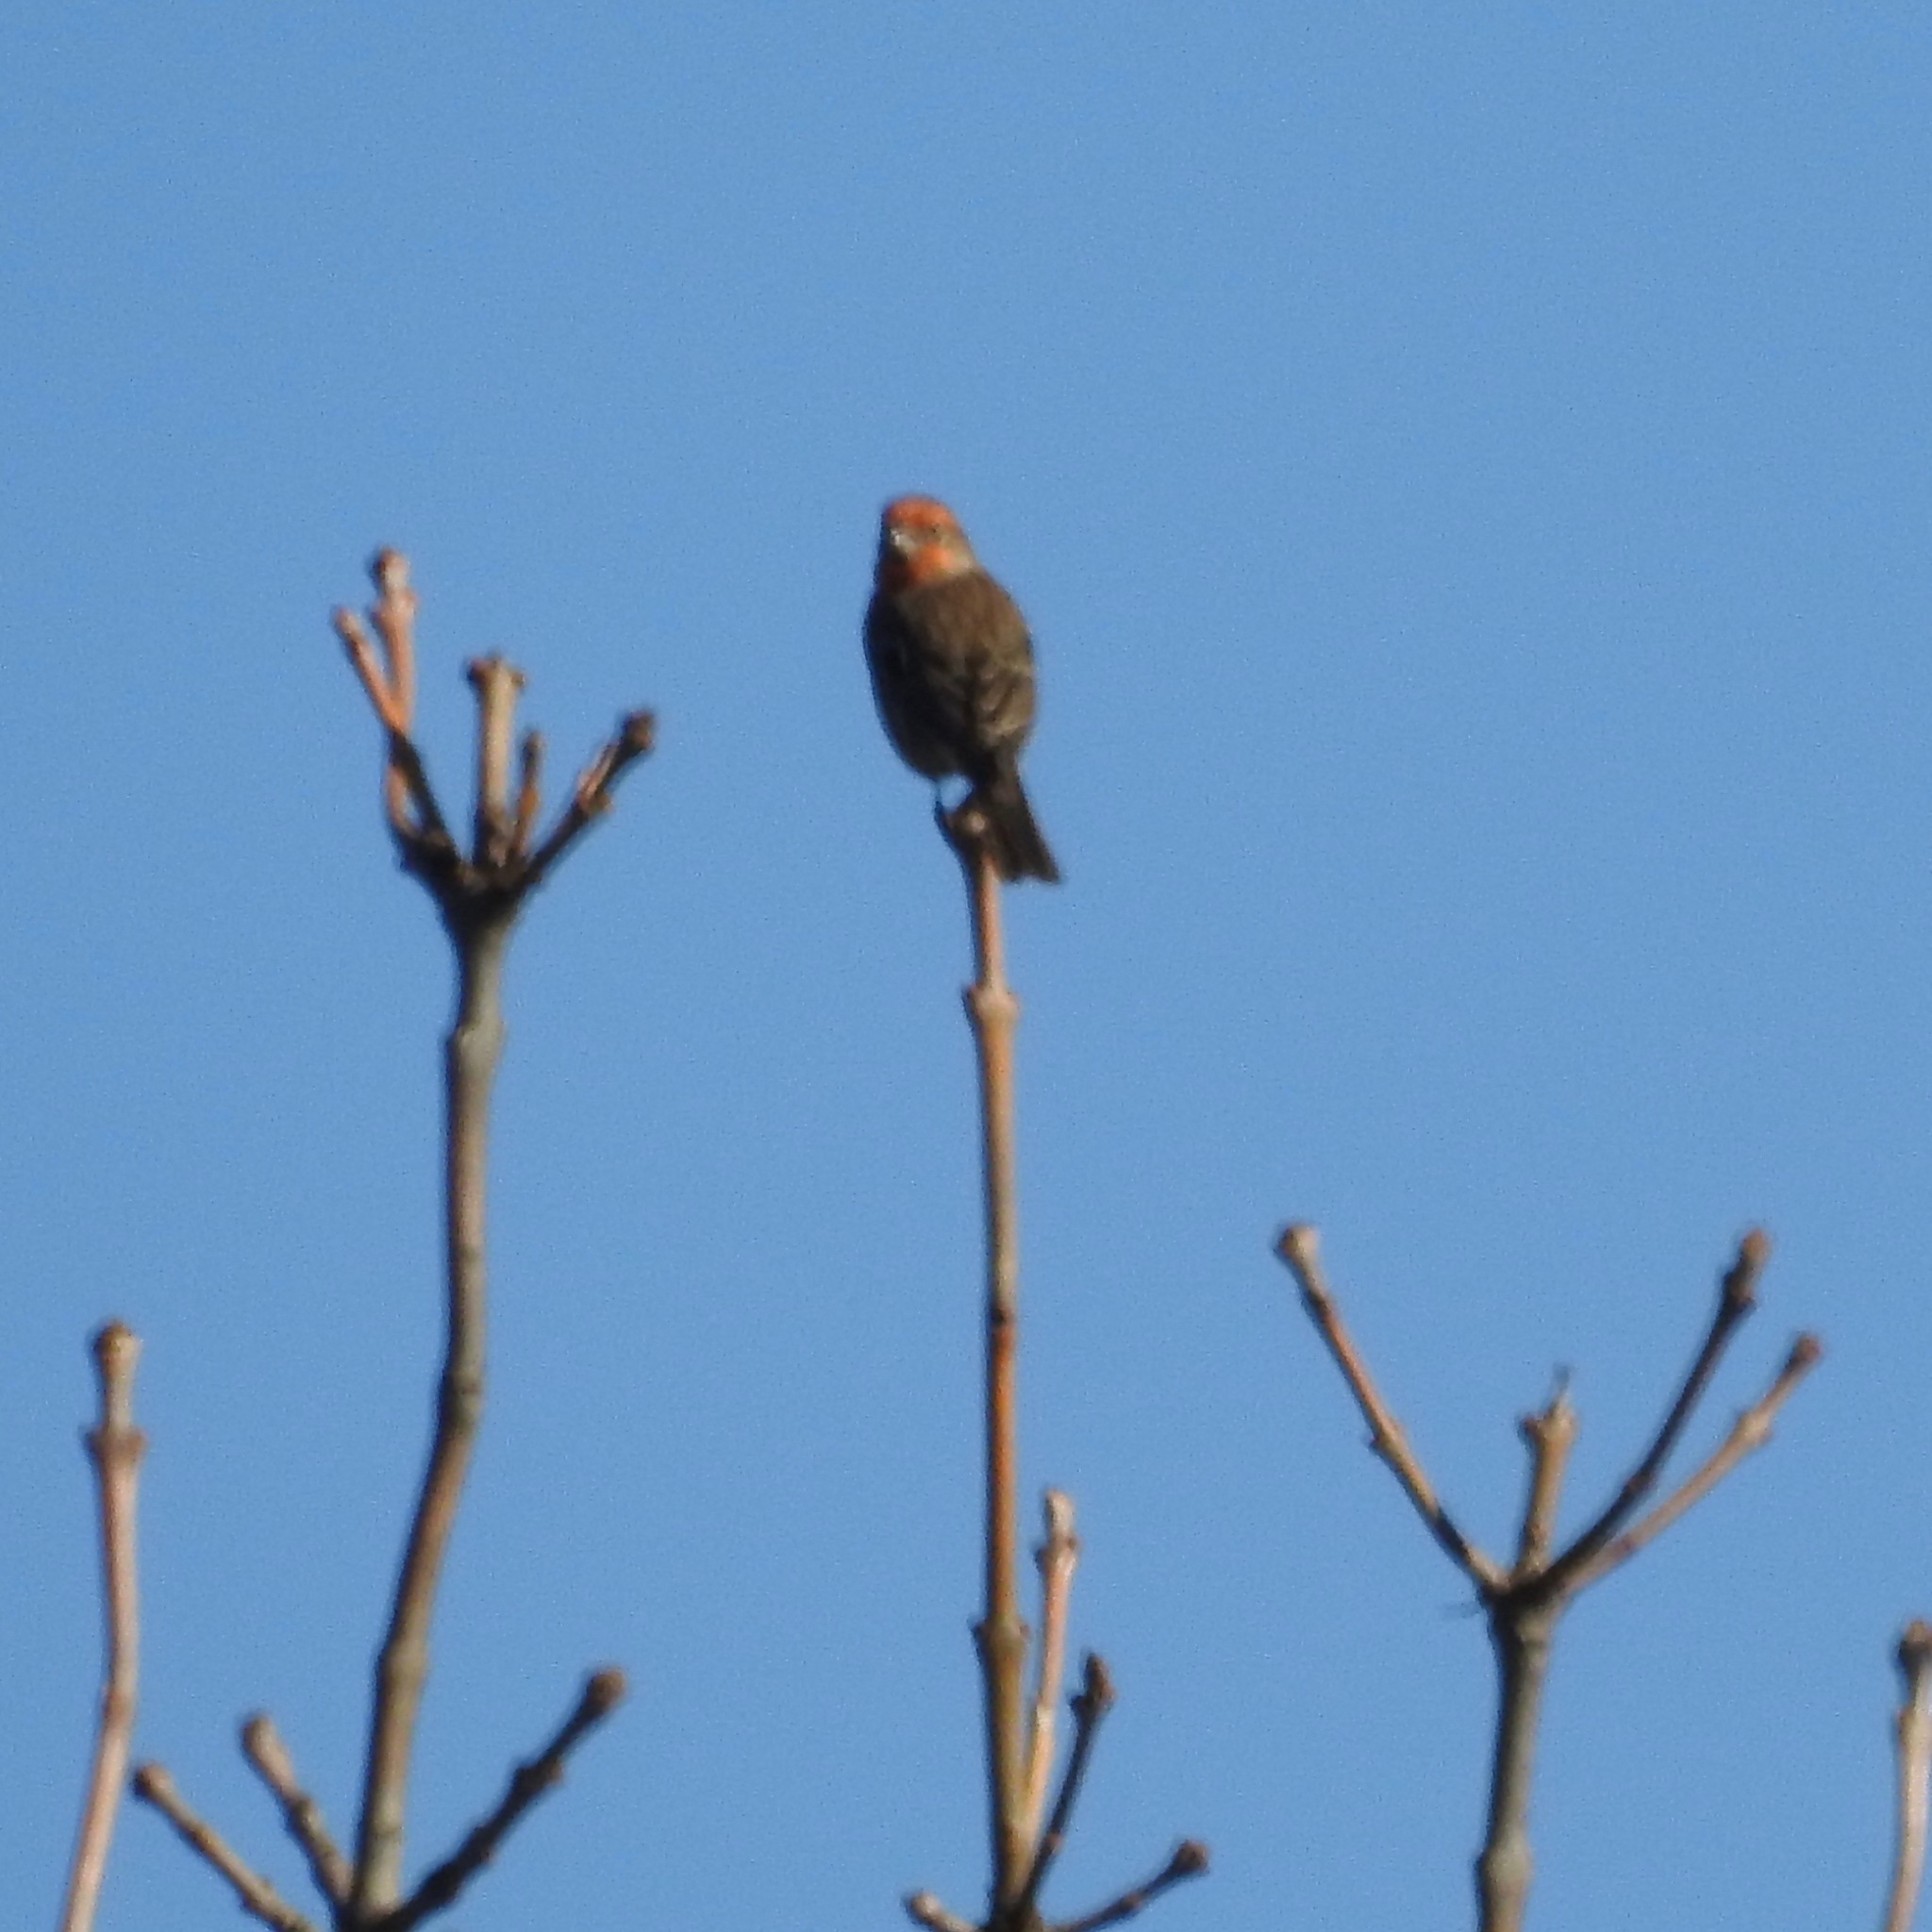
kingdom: Animalia
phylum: Chordata
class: Aves
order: Passeriformes
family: Fringillidae
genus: Haemorhous
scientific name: Haemorhous mexicanus
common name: House finch
